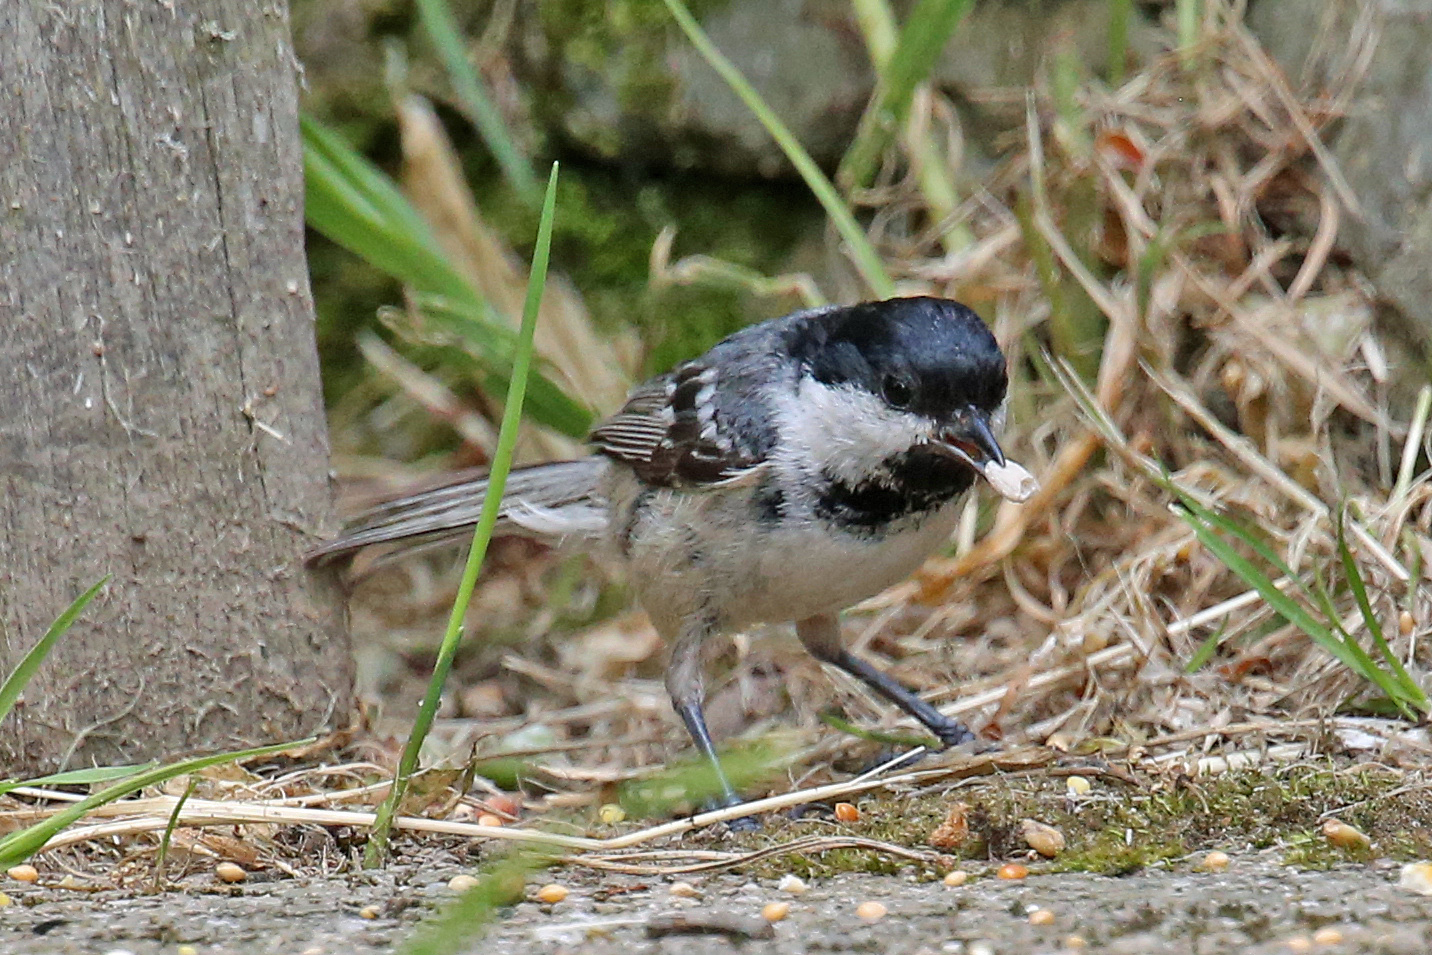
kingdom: Animalia
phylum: Chordata
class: Aves
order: Passeriformes
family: Paridae
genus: Periparus
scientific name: Periparus ater
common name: Coal tit
